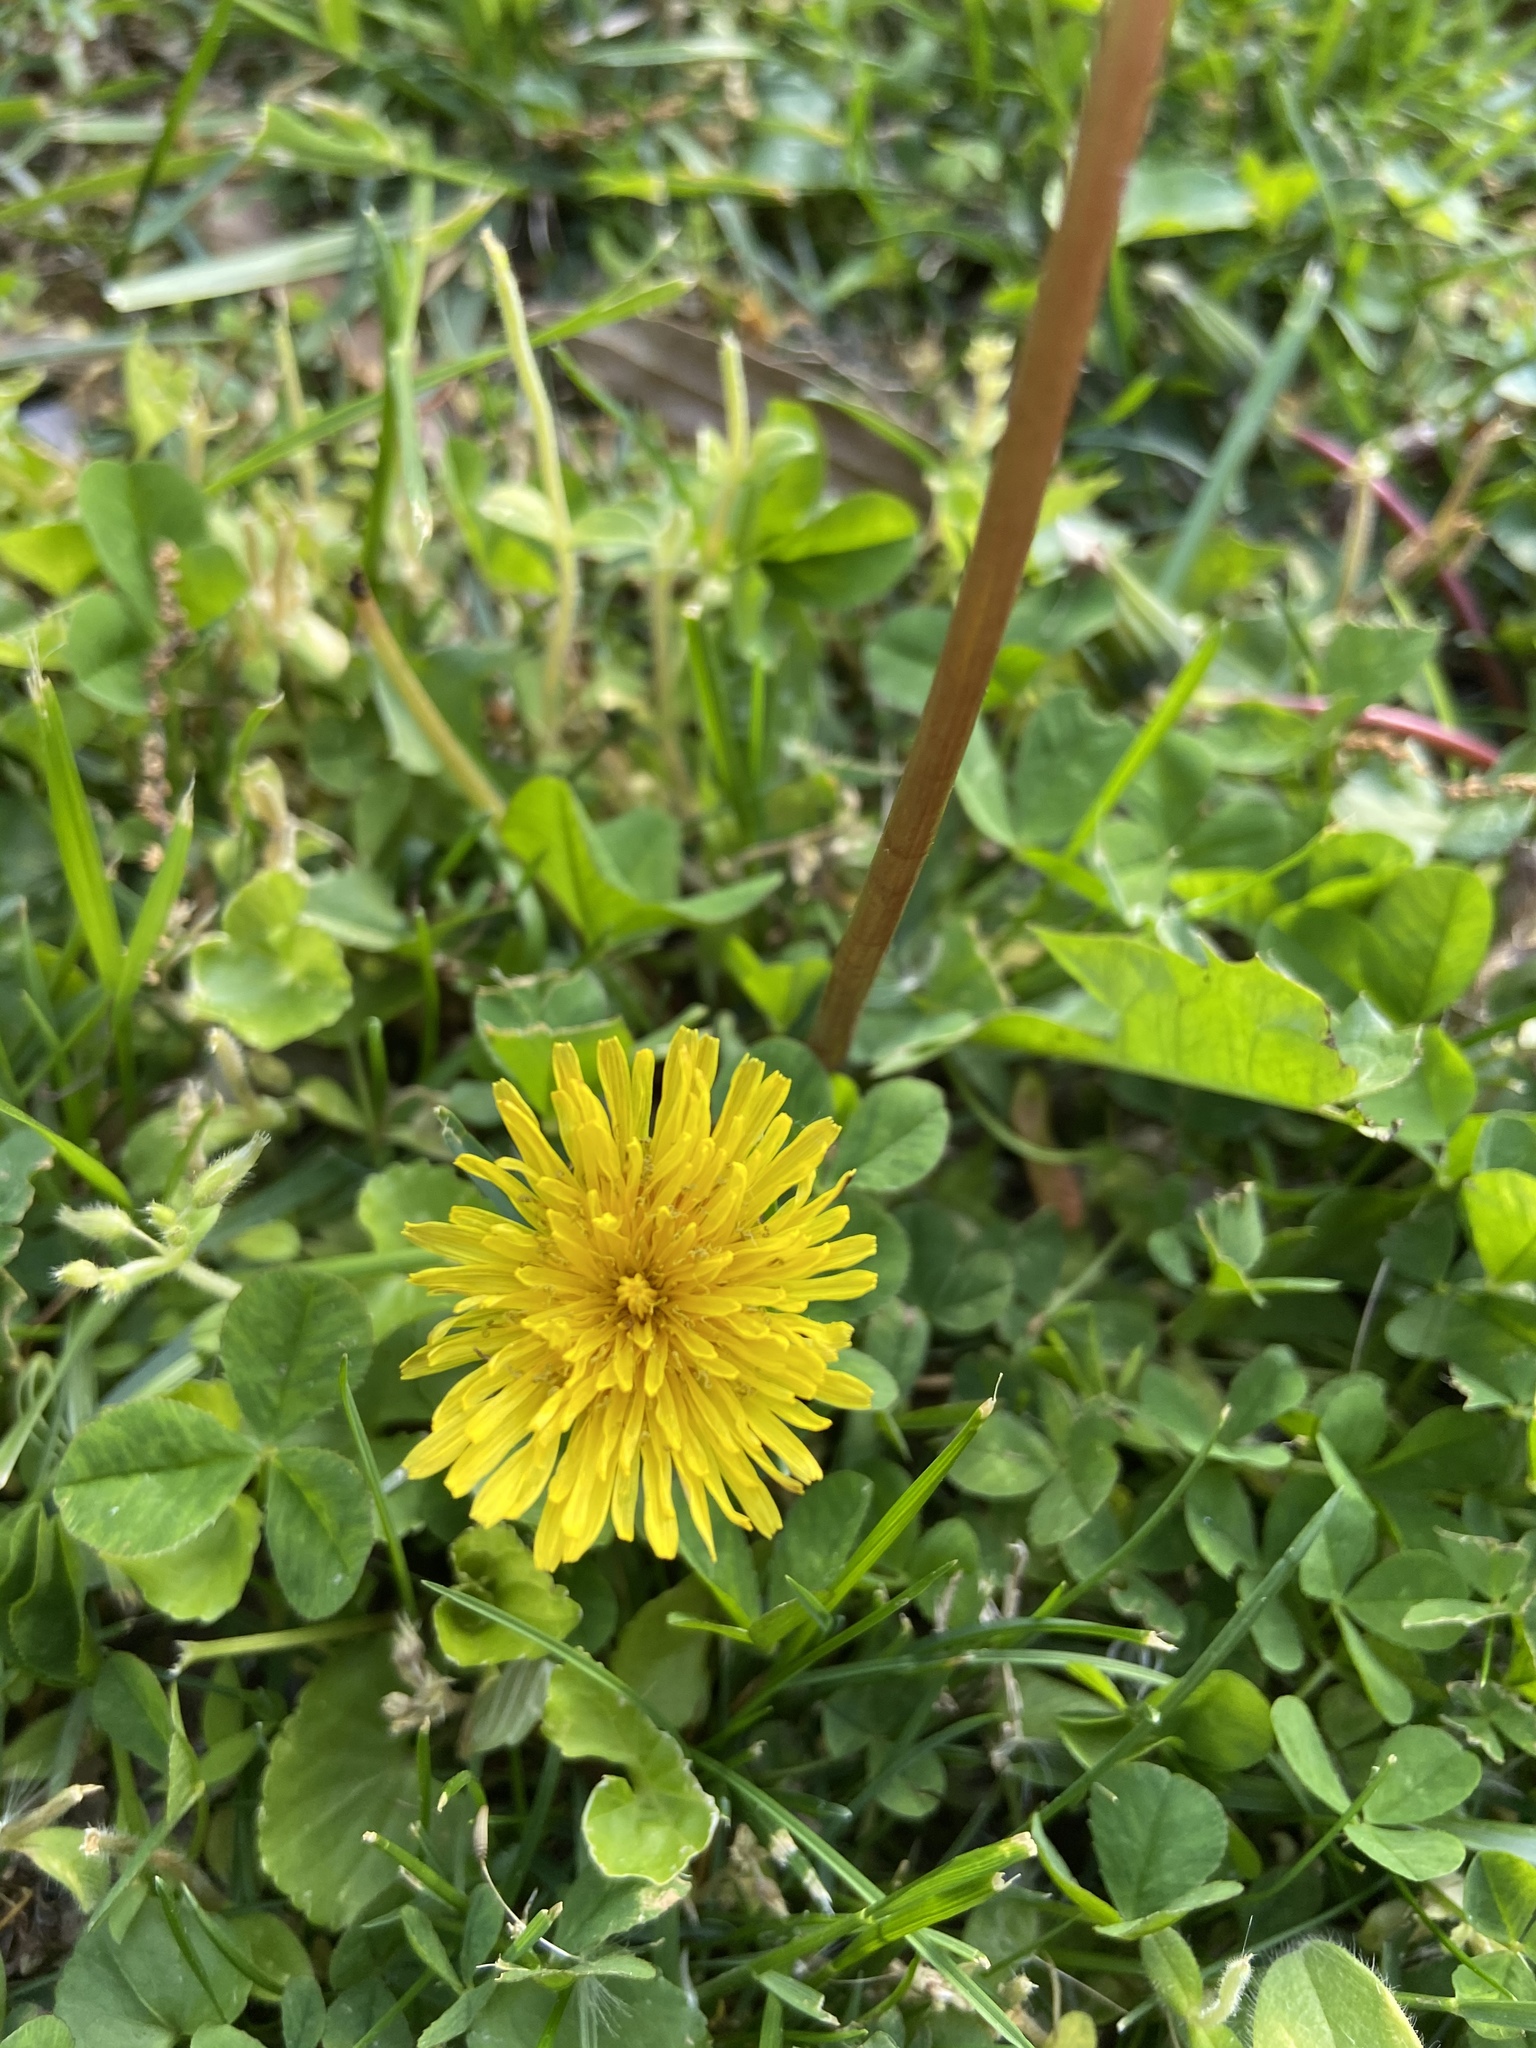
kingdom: Plantae
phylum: Tracheophyta
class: Magnoliopsida
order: Asterales
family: Asteraceae
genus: Taraxacum
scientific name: Taraxacum officinale
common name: Common dandelion
